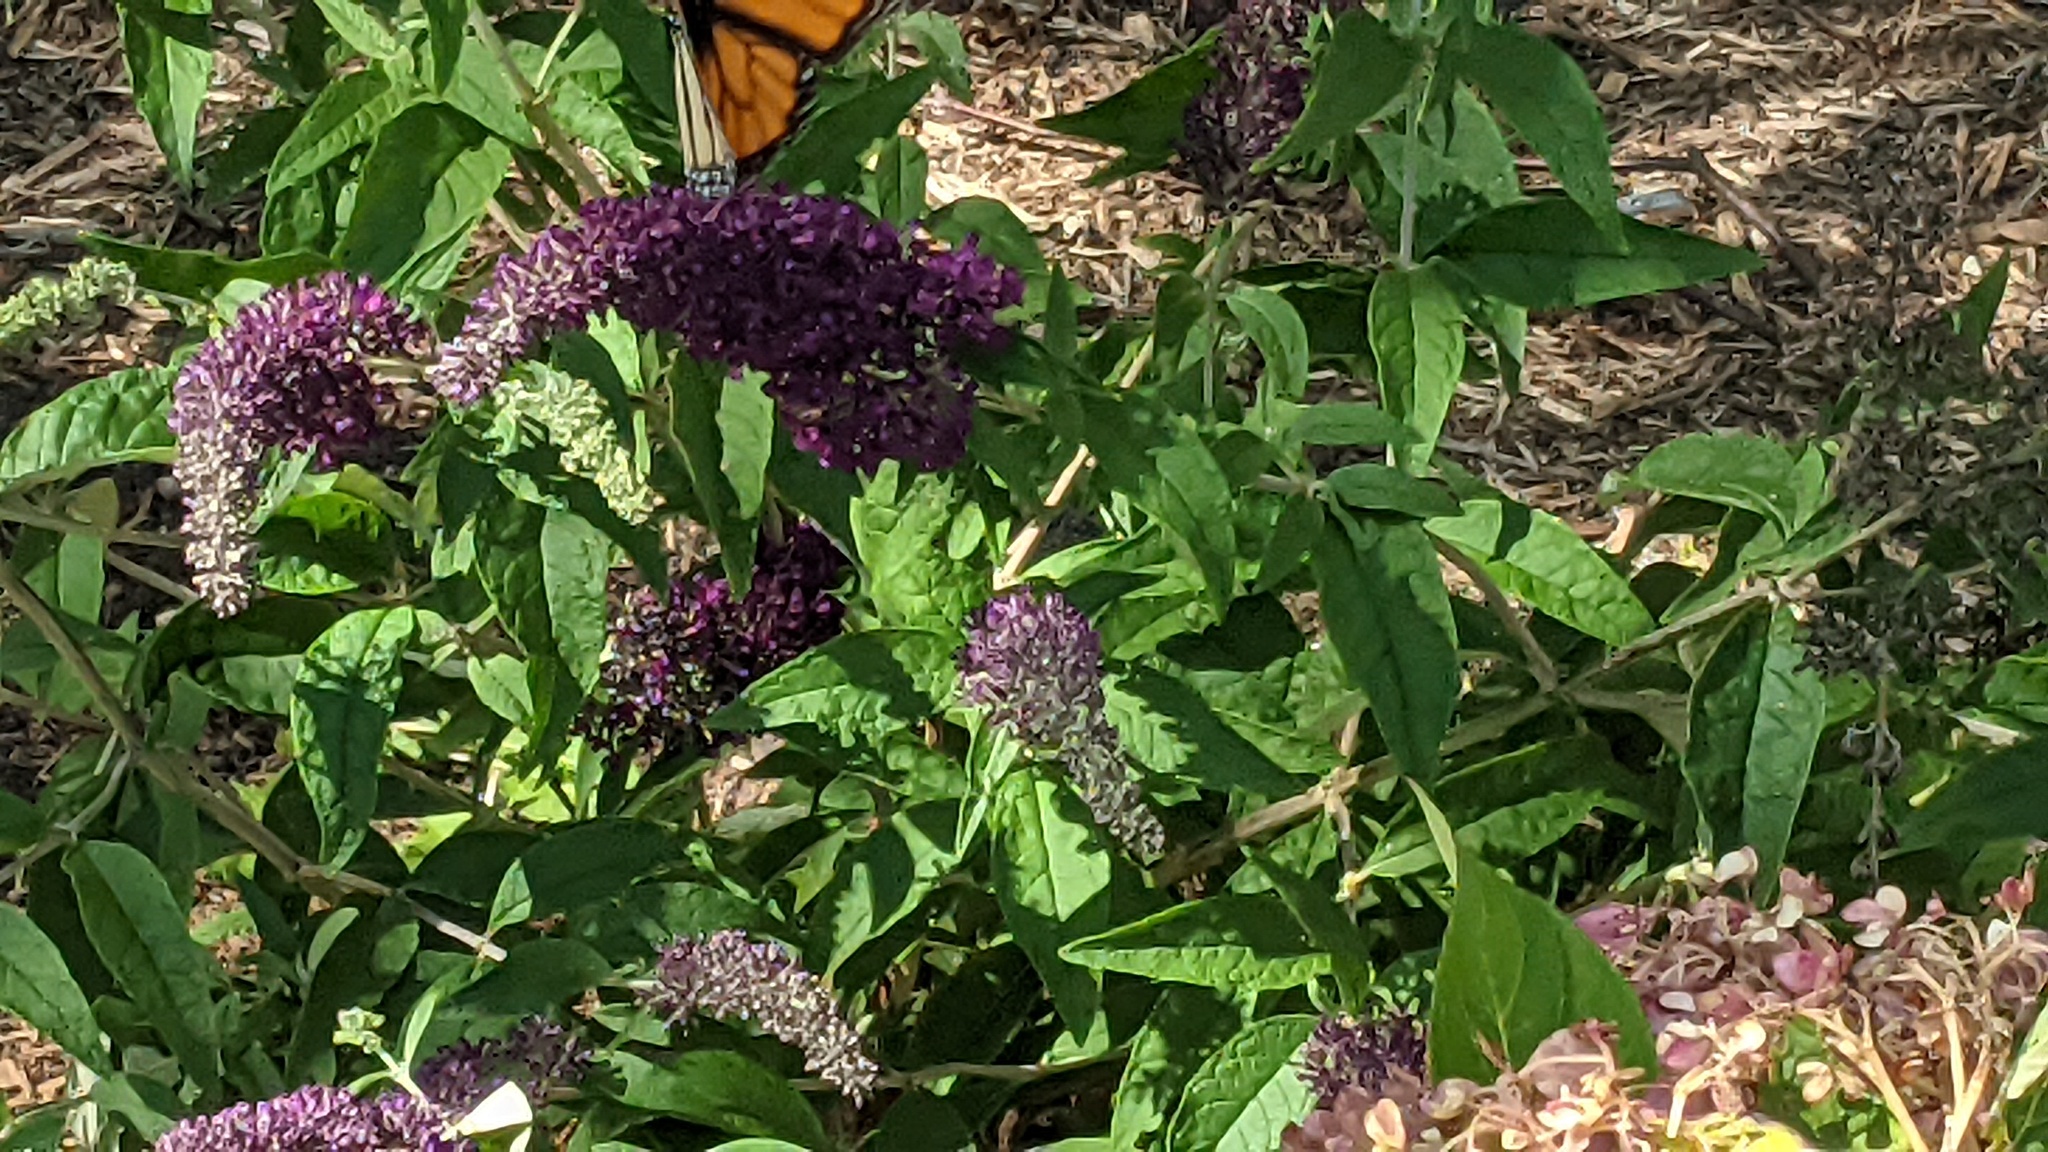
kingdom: Animalia
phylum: Arthropoda
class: Insecta
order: Lepidoptera
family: Nymphalidae
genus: Danaus
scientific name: Danaus plexippus
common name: Monarch
